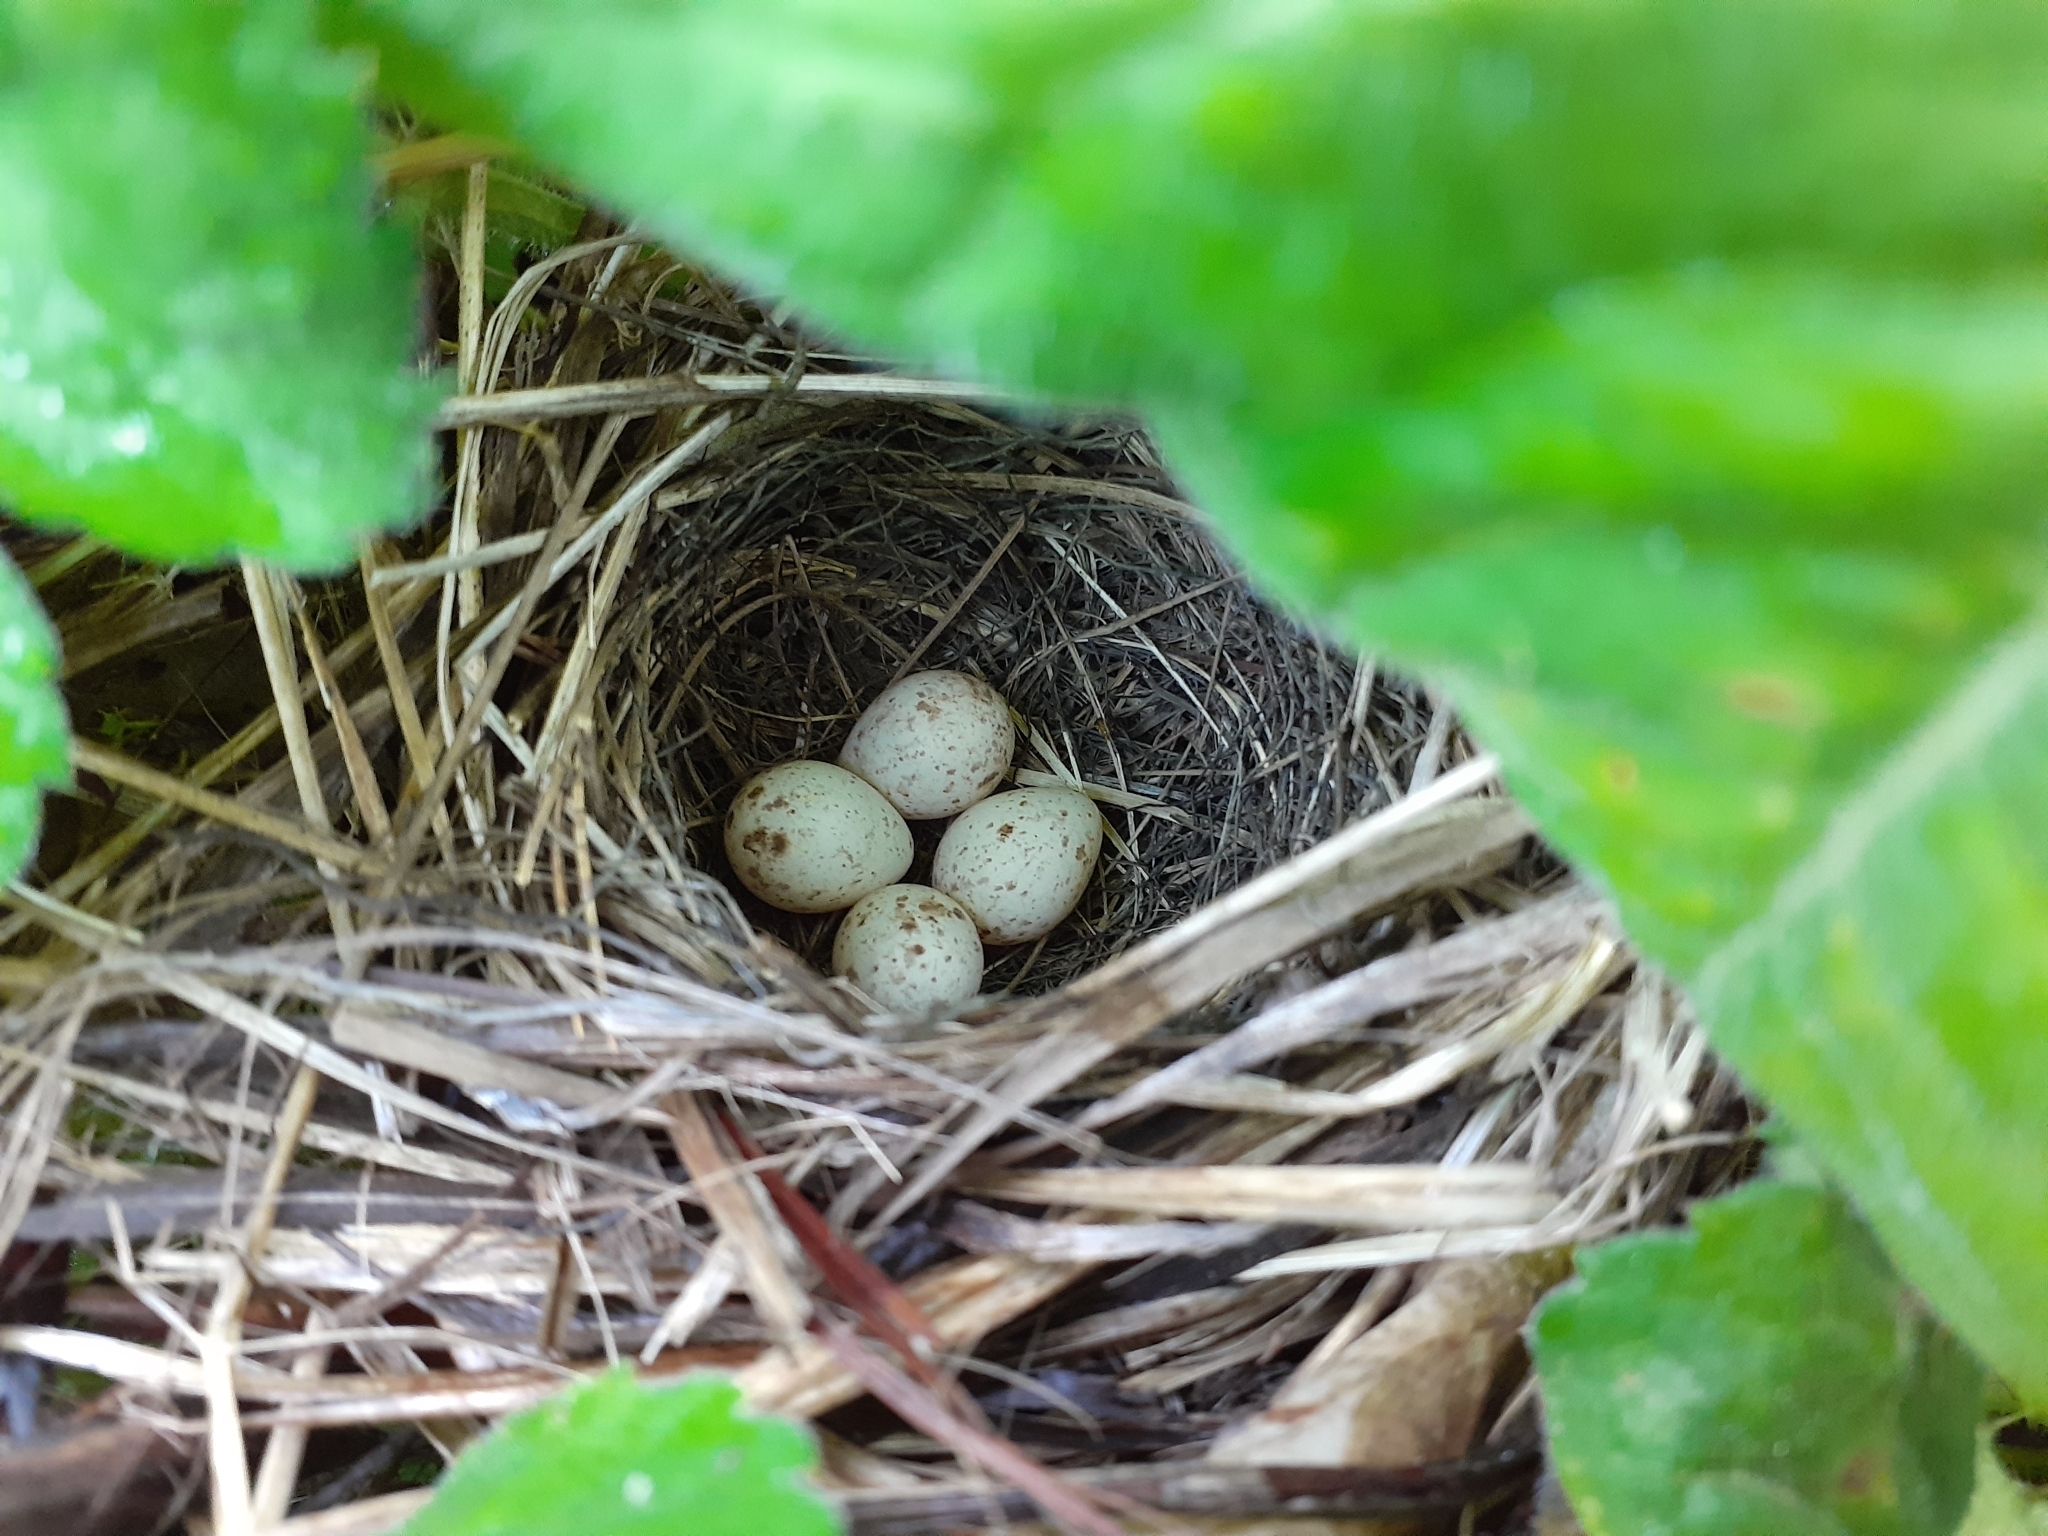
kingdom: Animalia
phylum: Chordata
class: Aves
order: Passeriformes
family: Parulidae
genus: Geothlypis
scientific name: Geothlypis philadelphia
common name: Mourning warbler
